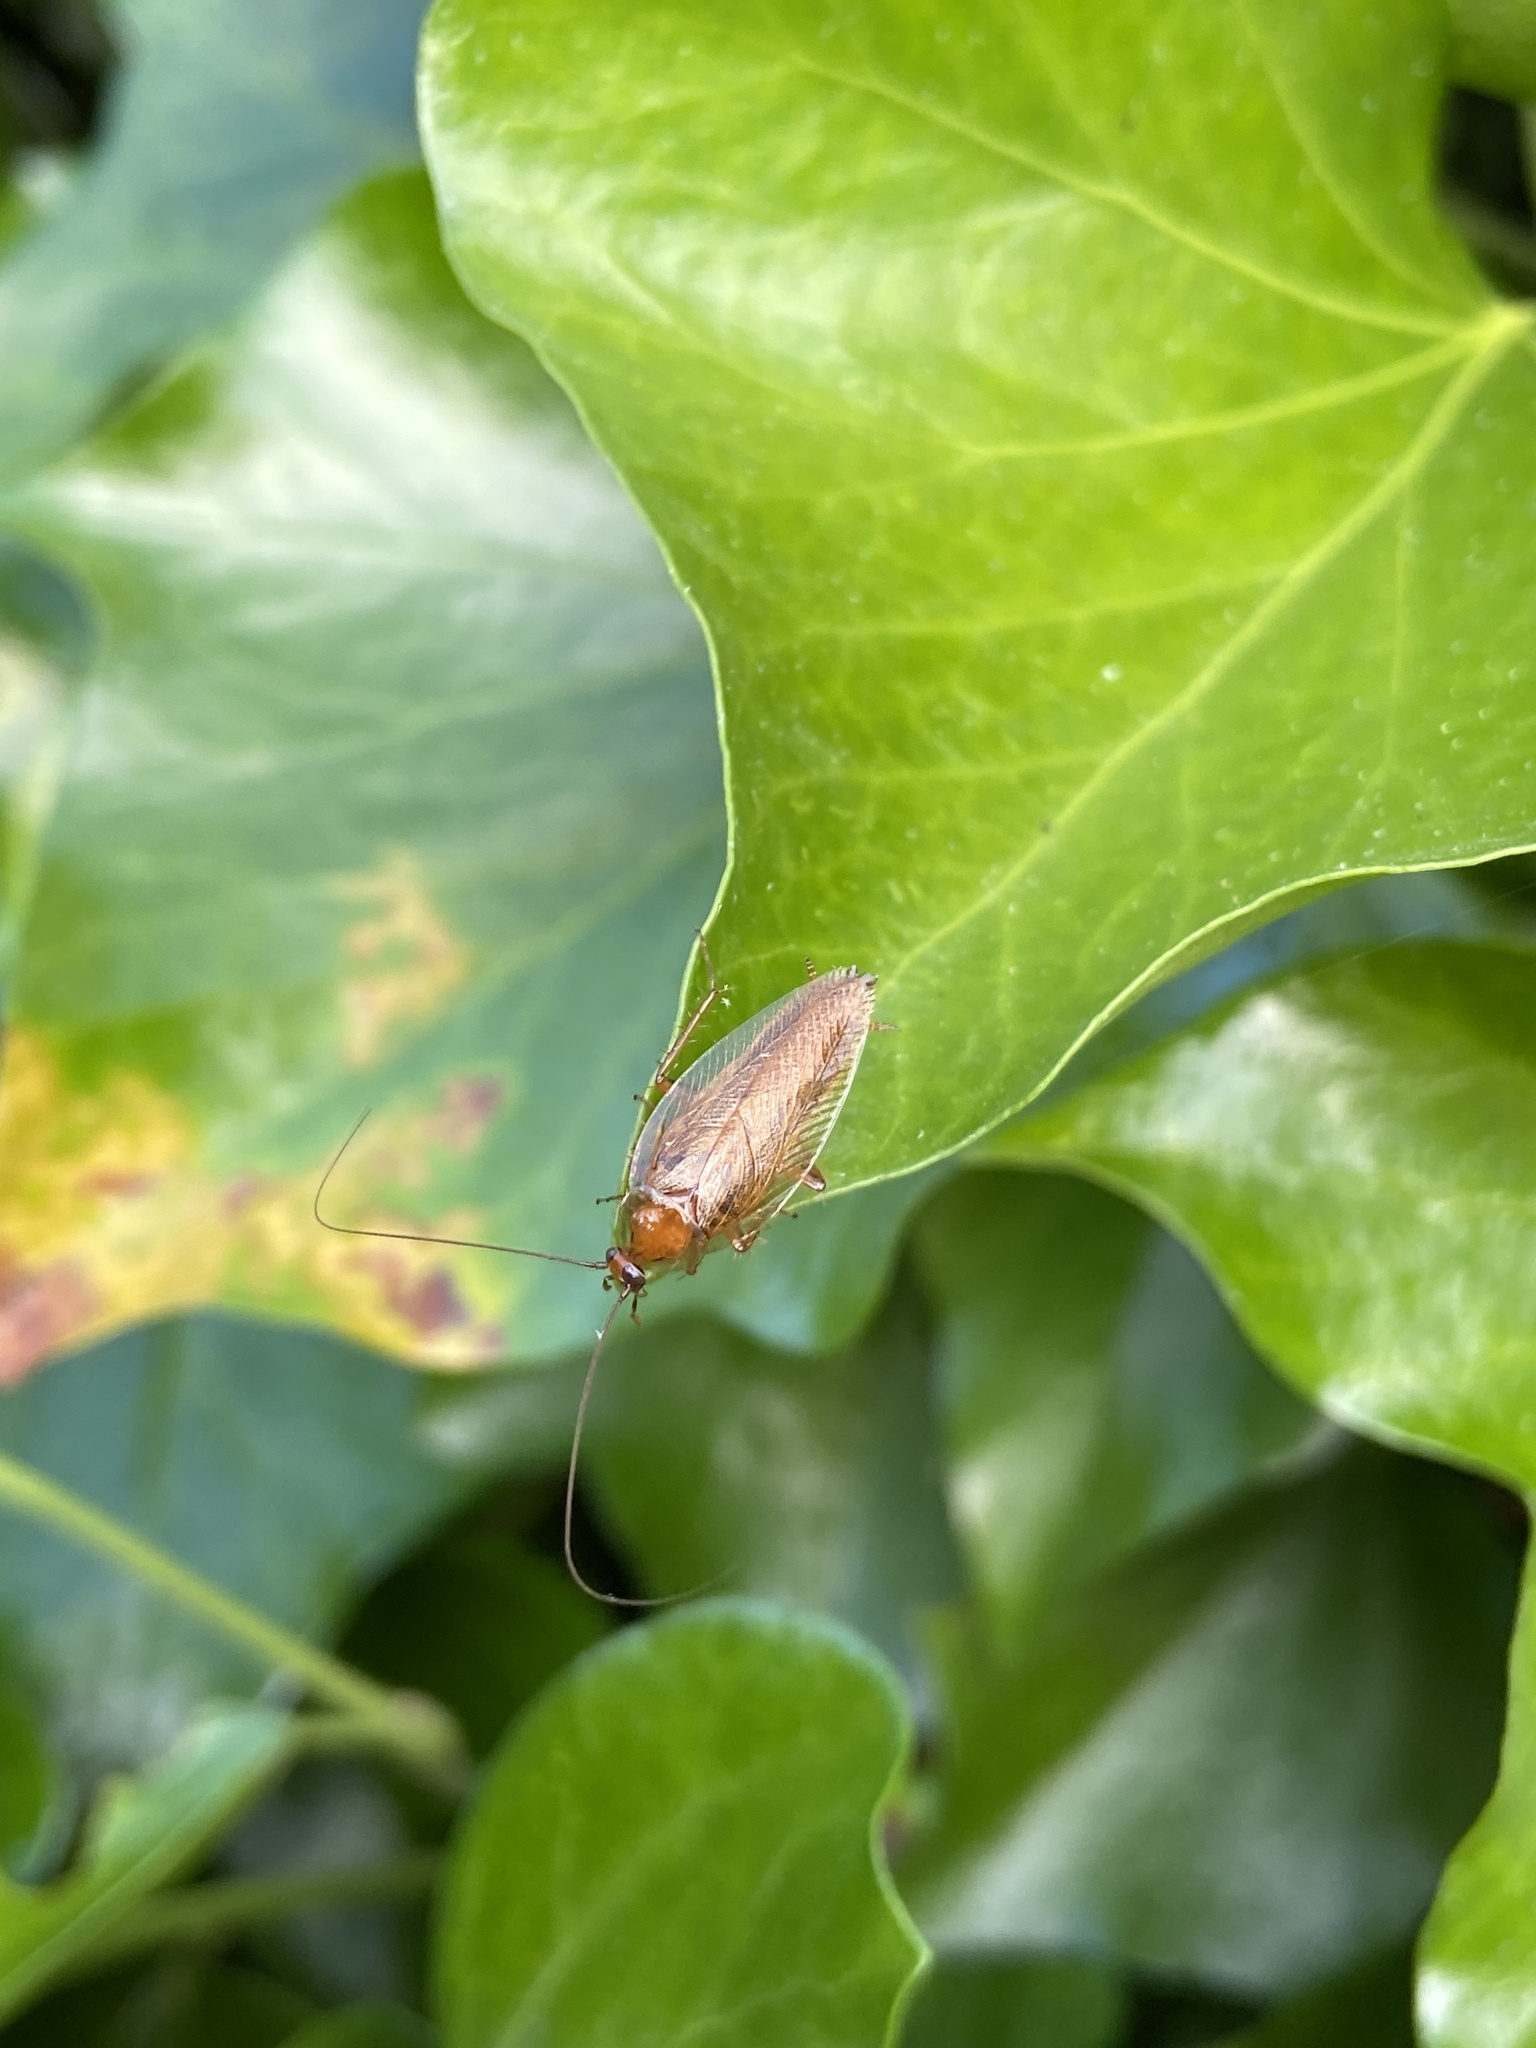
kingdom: Animalia
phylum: Arthropoda
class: Insecta
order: Blattodea
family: Ectobiidae
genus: Ectobius
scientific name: Ectobius vittiventris
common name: Garden cockroach
